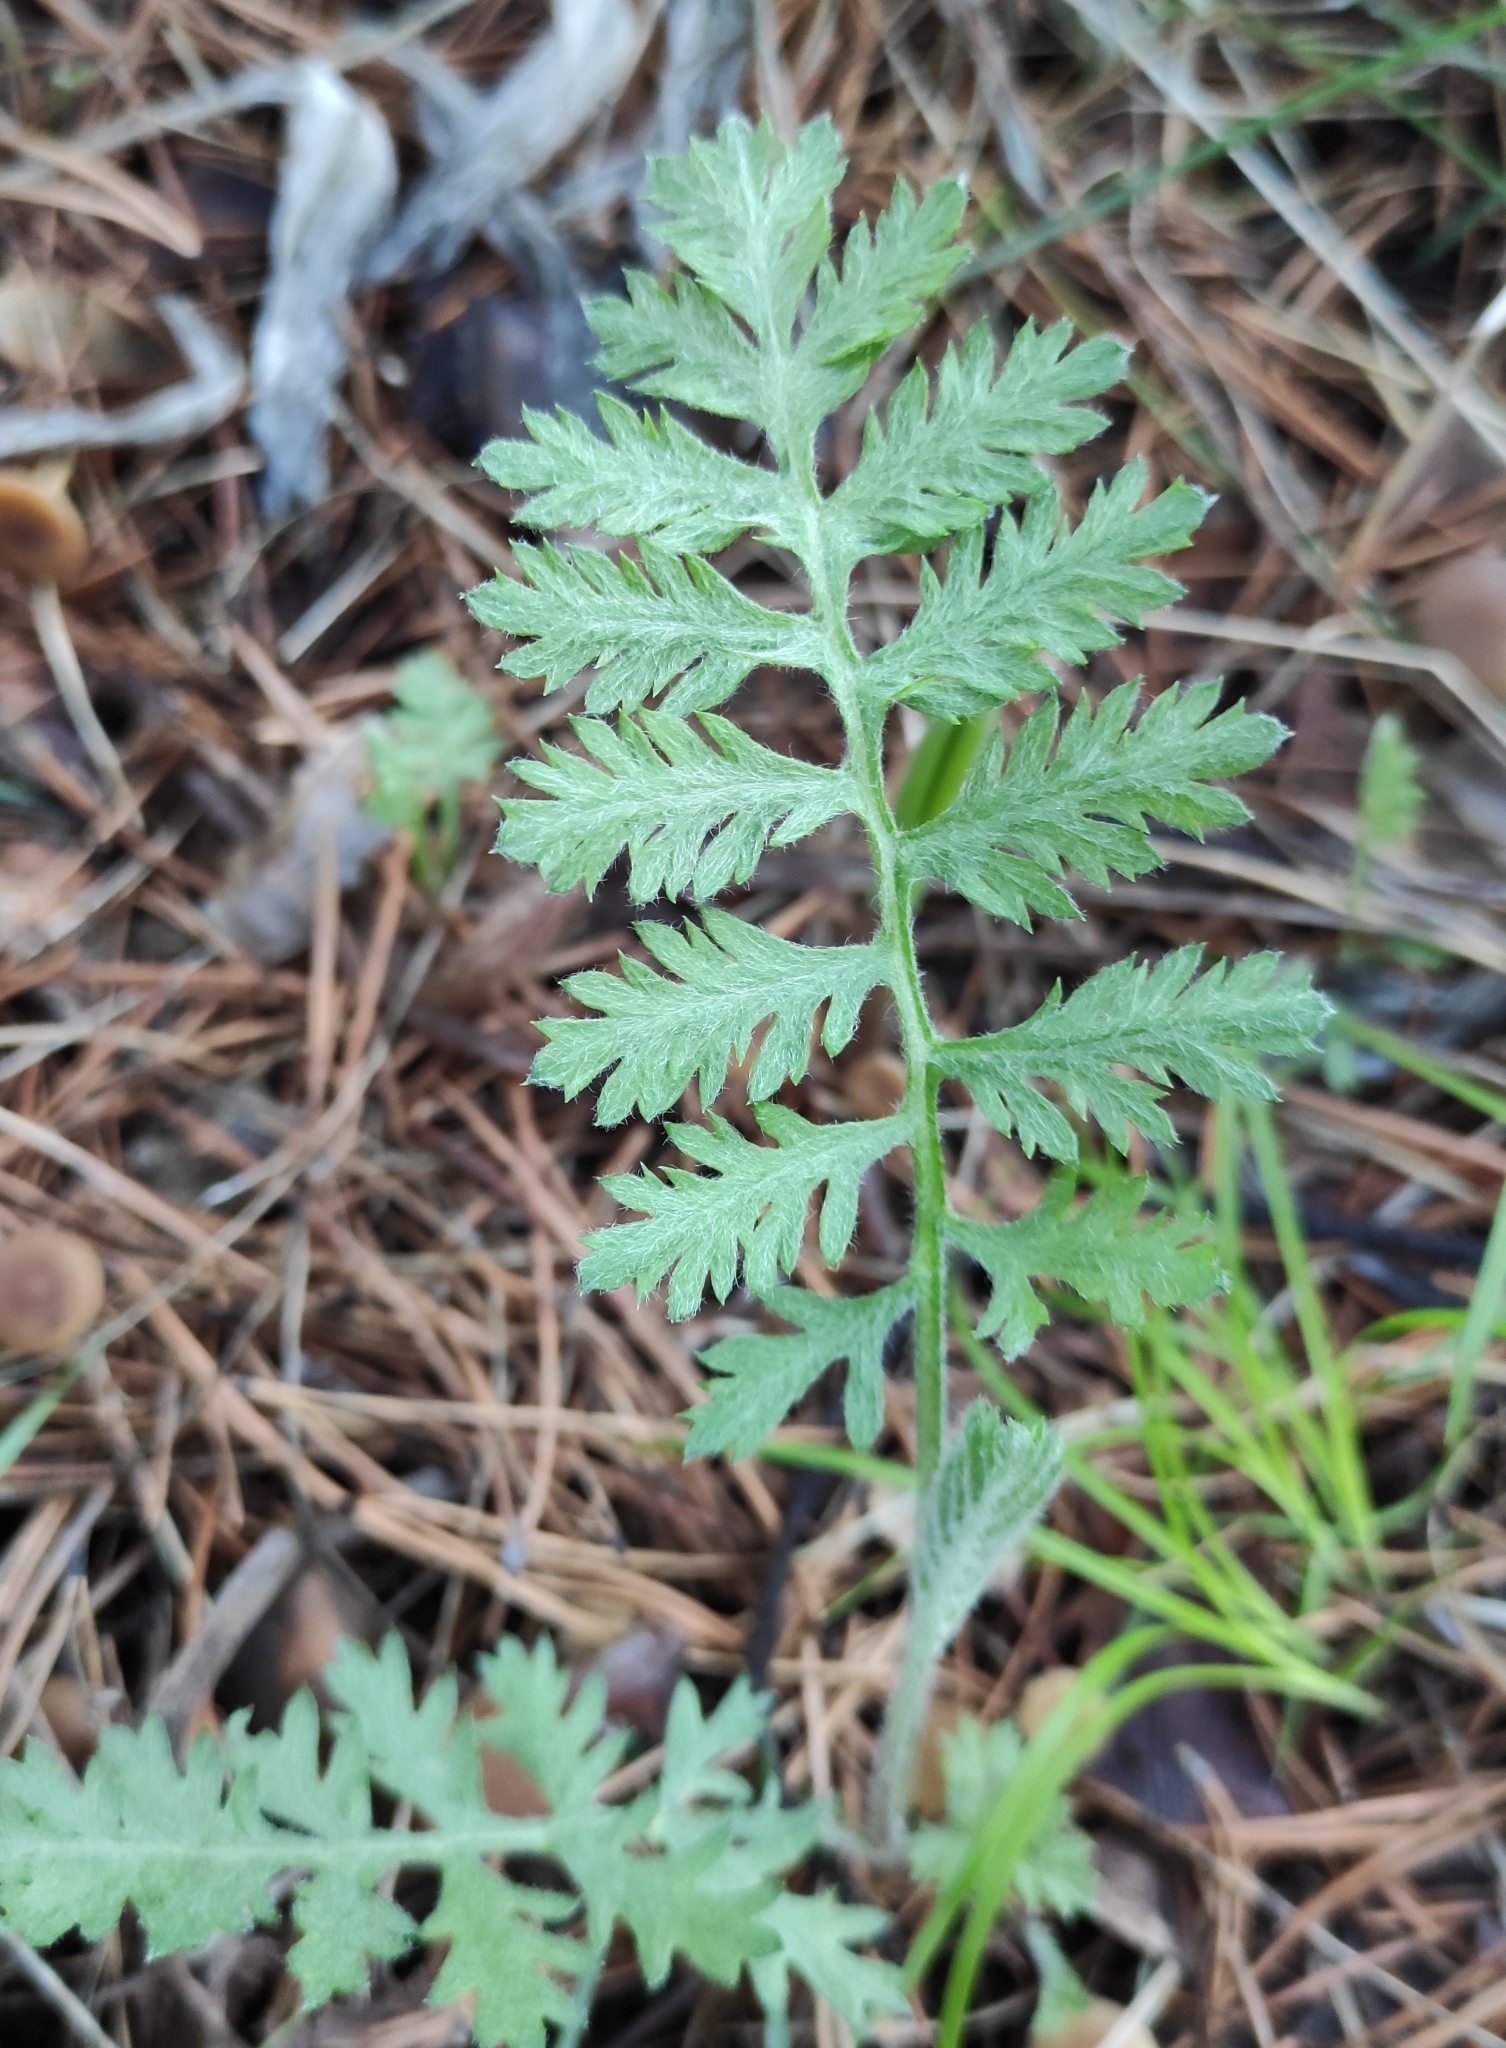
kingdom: Plantae
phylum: Tracheophyta
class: Magnoliopsida
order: Asterales
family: Asteraceae
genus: Artemisia
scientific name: Artemisia tanacetifolia
